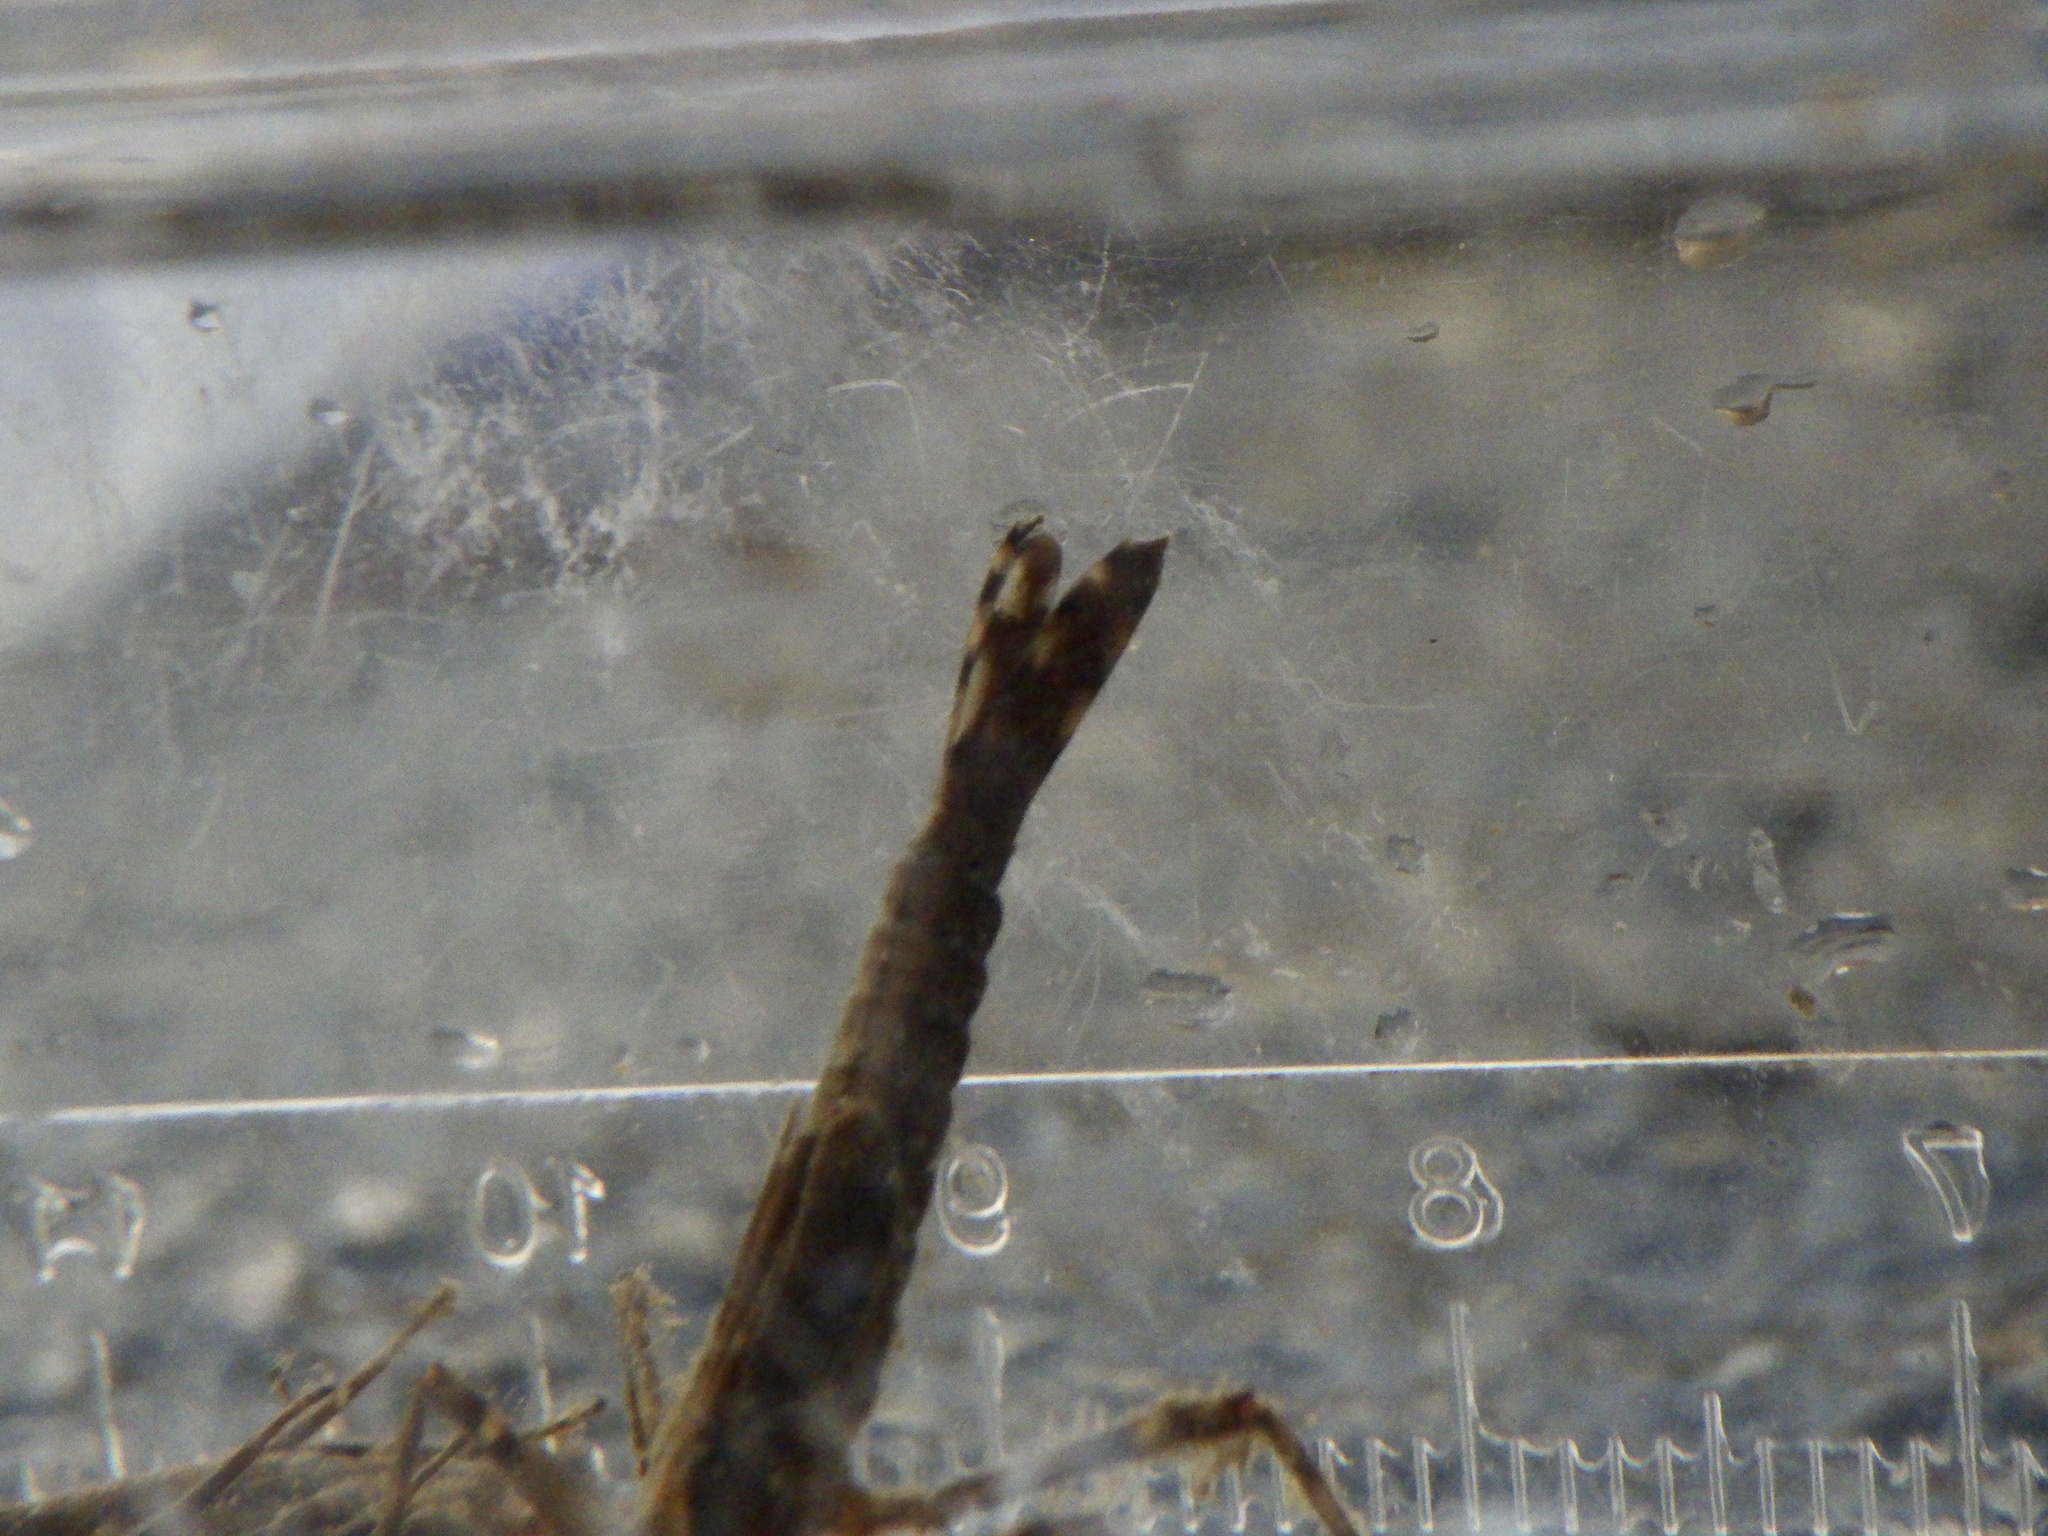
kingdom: Animalia
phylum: Arthropoda
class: Insecta
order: Odonata
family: Calopterygidae
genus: Mnais
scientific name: Mnais costalis
